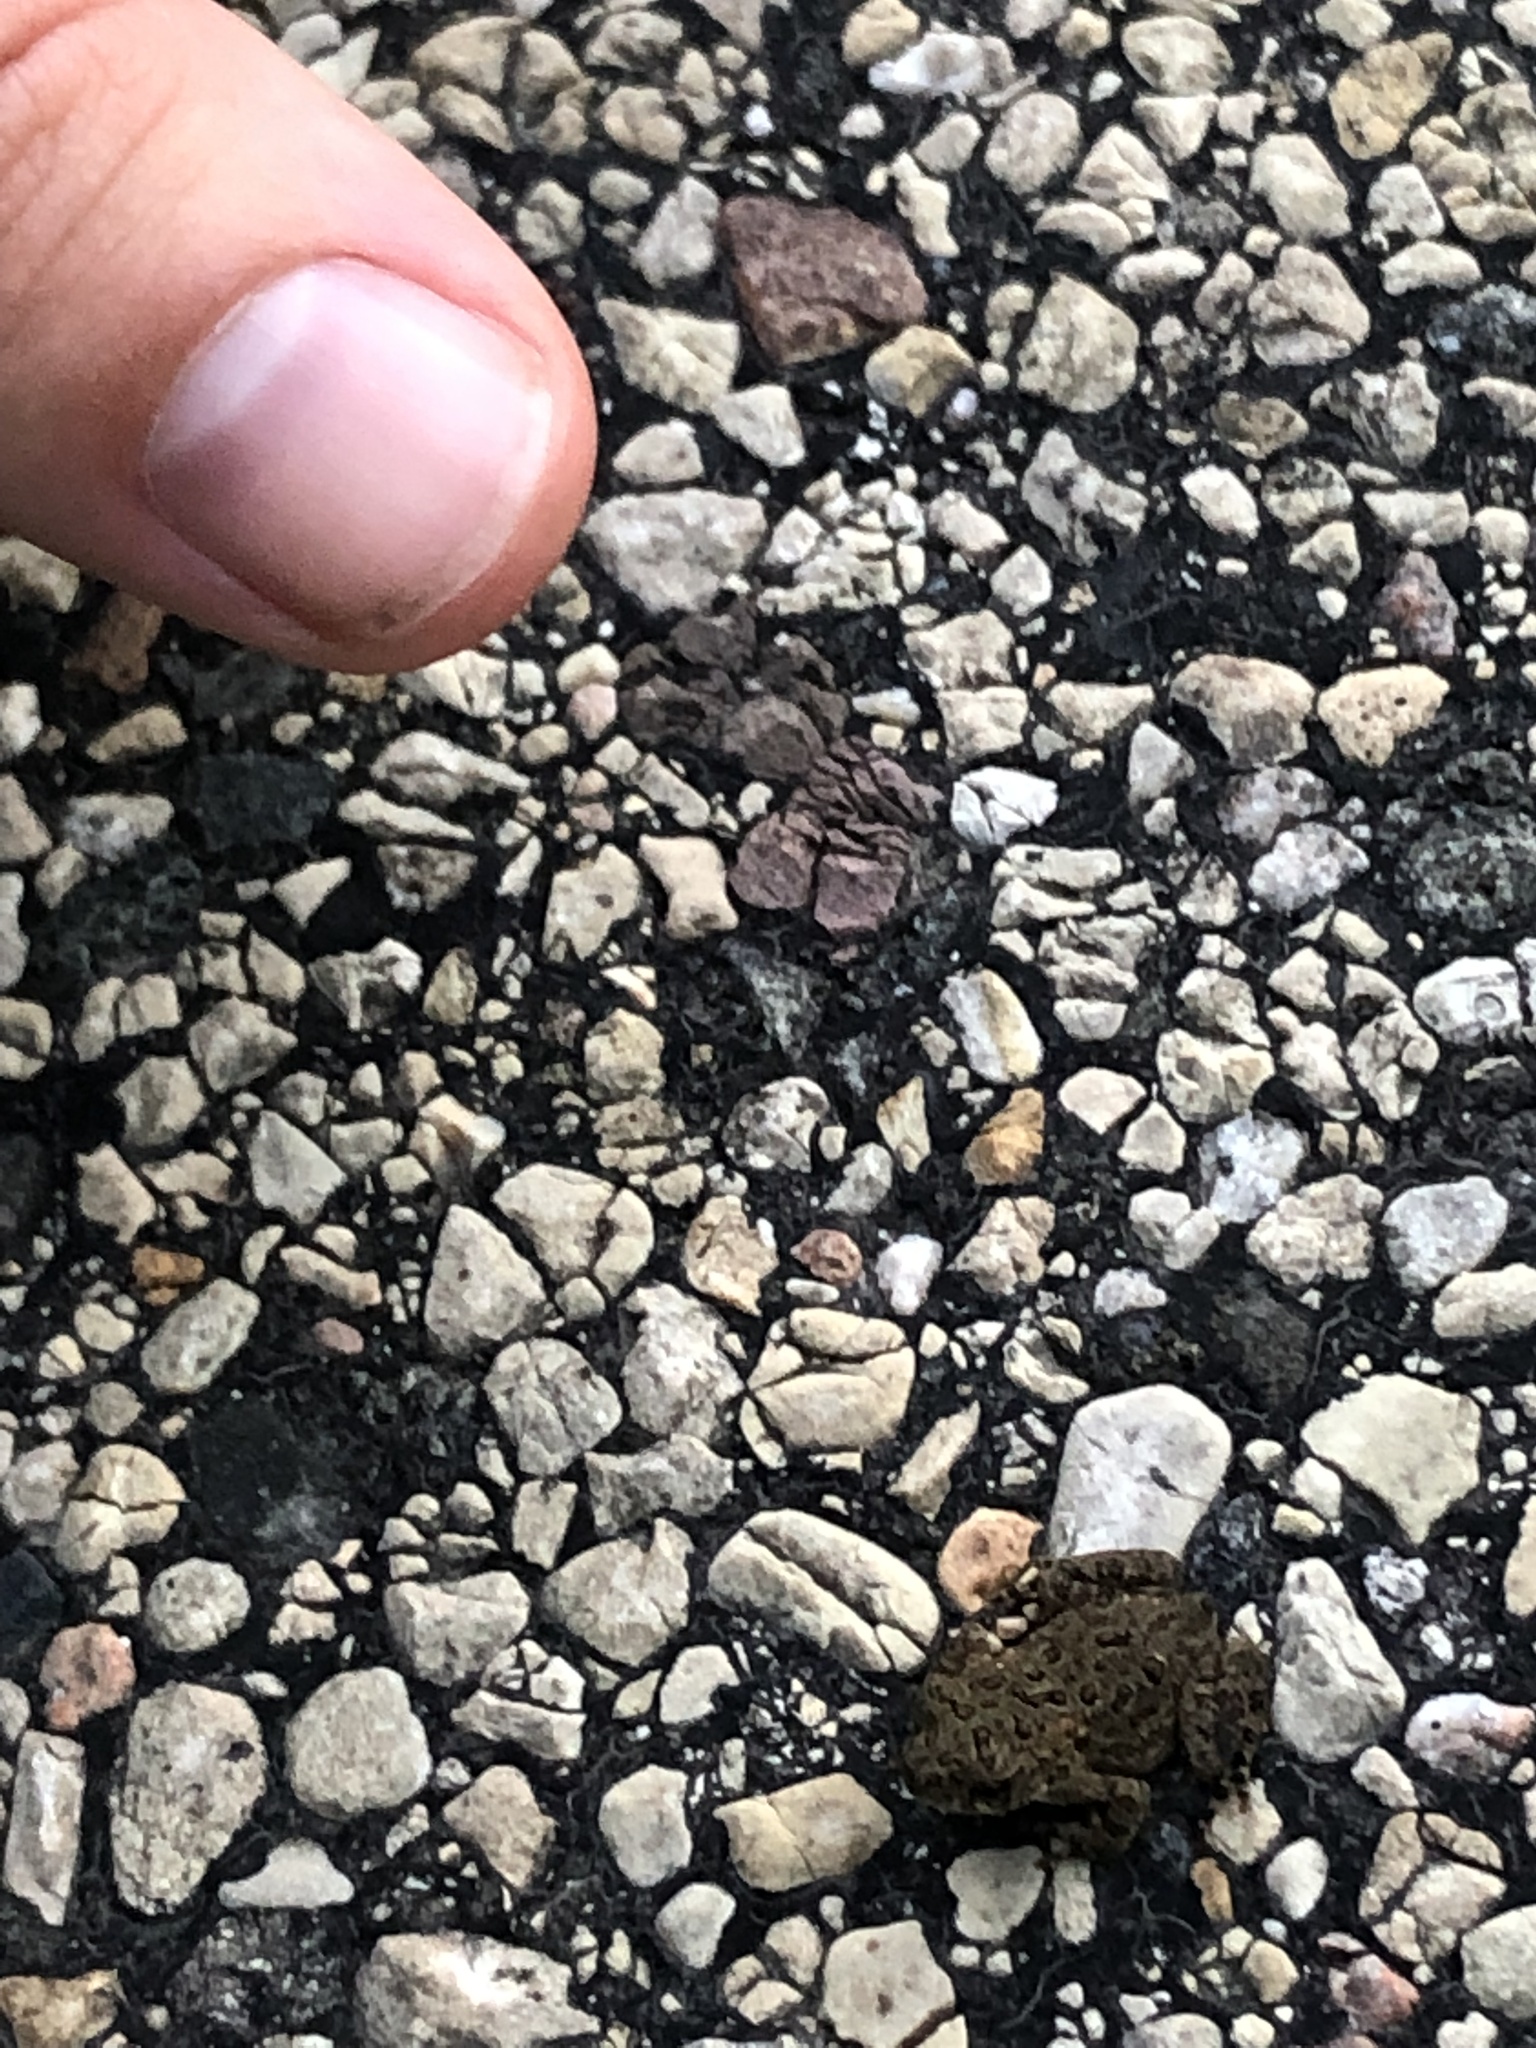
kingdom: Animalia
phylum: Chordata
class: Amphibia
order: Anura
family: Bufonidae
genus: Anaxyrus
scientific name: Anaxyrus americanus
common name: American toad
